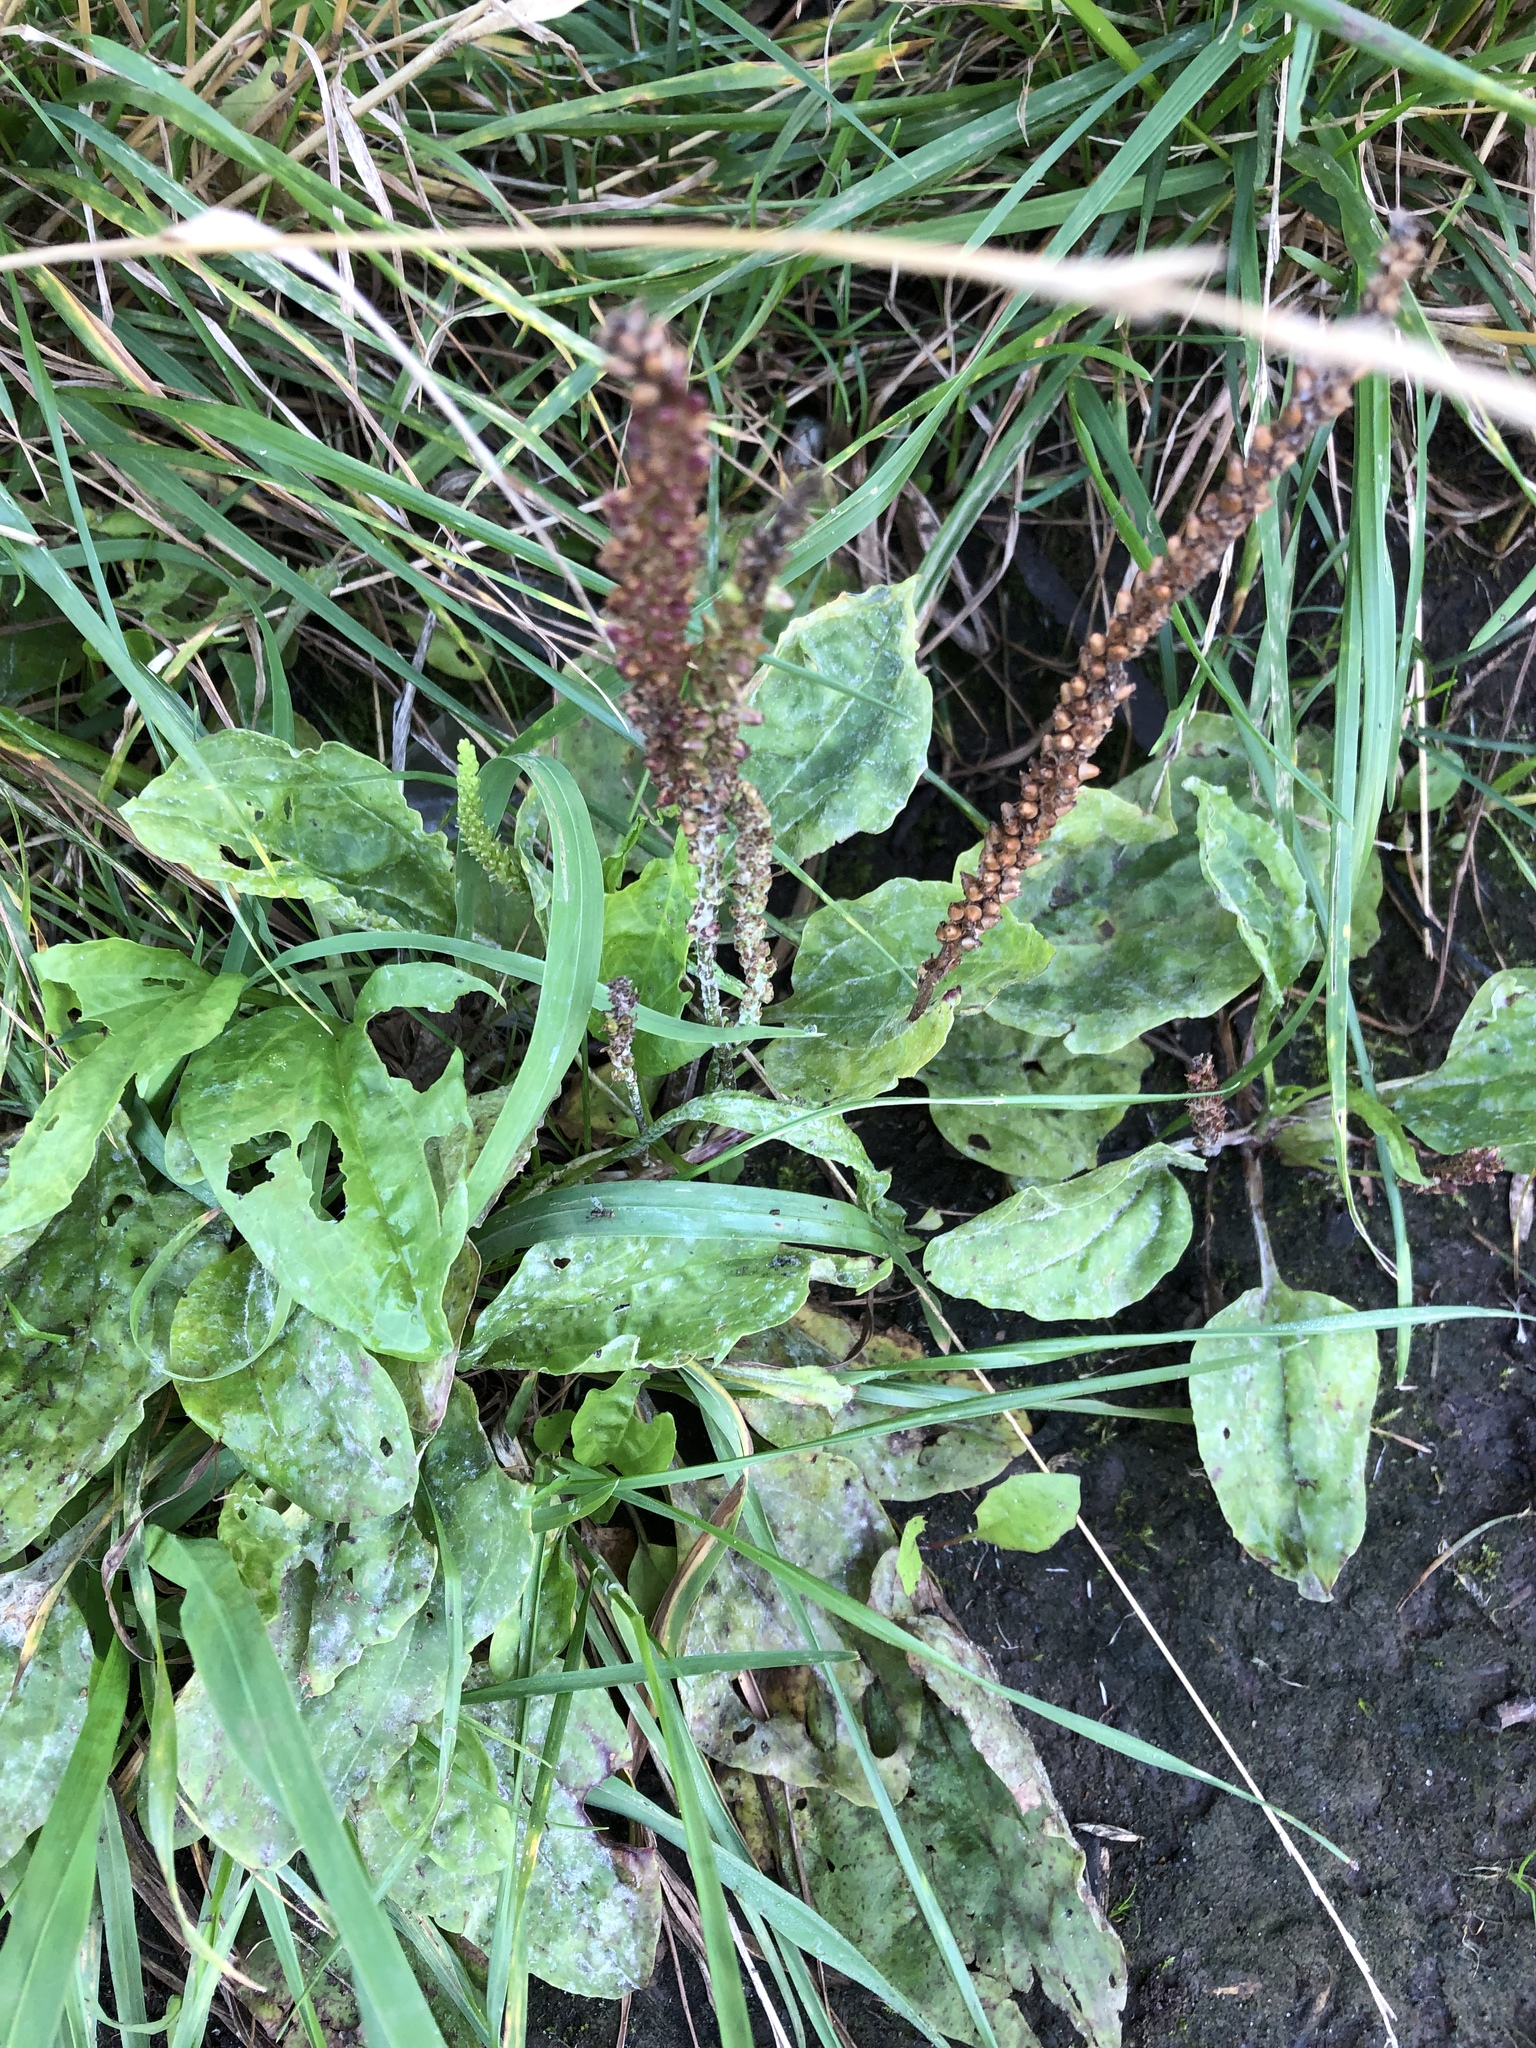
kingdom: Plantae
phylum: Tracheophyta
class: Magnoliopsida
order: Lamiales
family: Plantaginaceae
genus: Plantago
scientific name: Plantago major
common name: Common plantain
